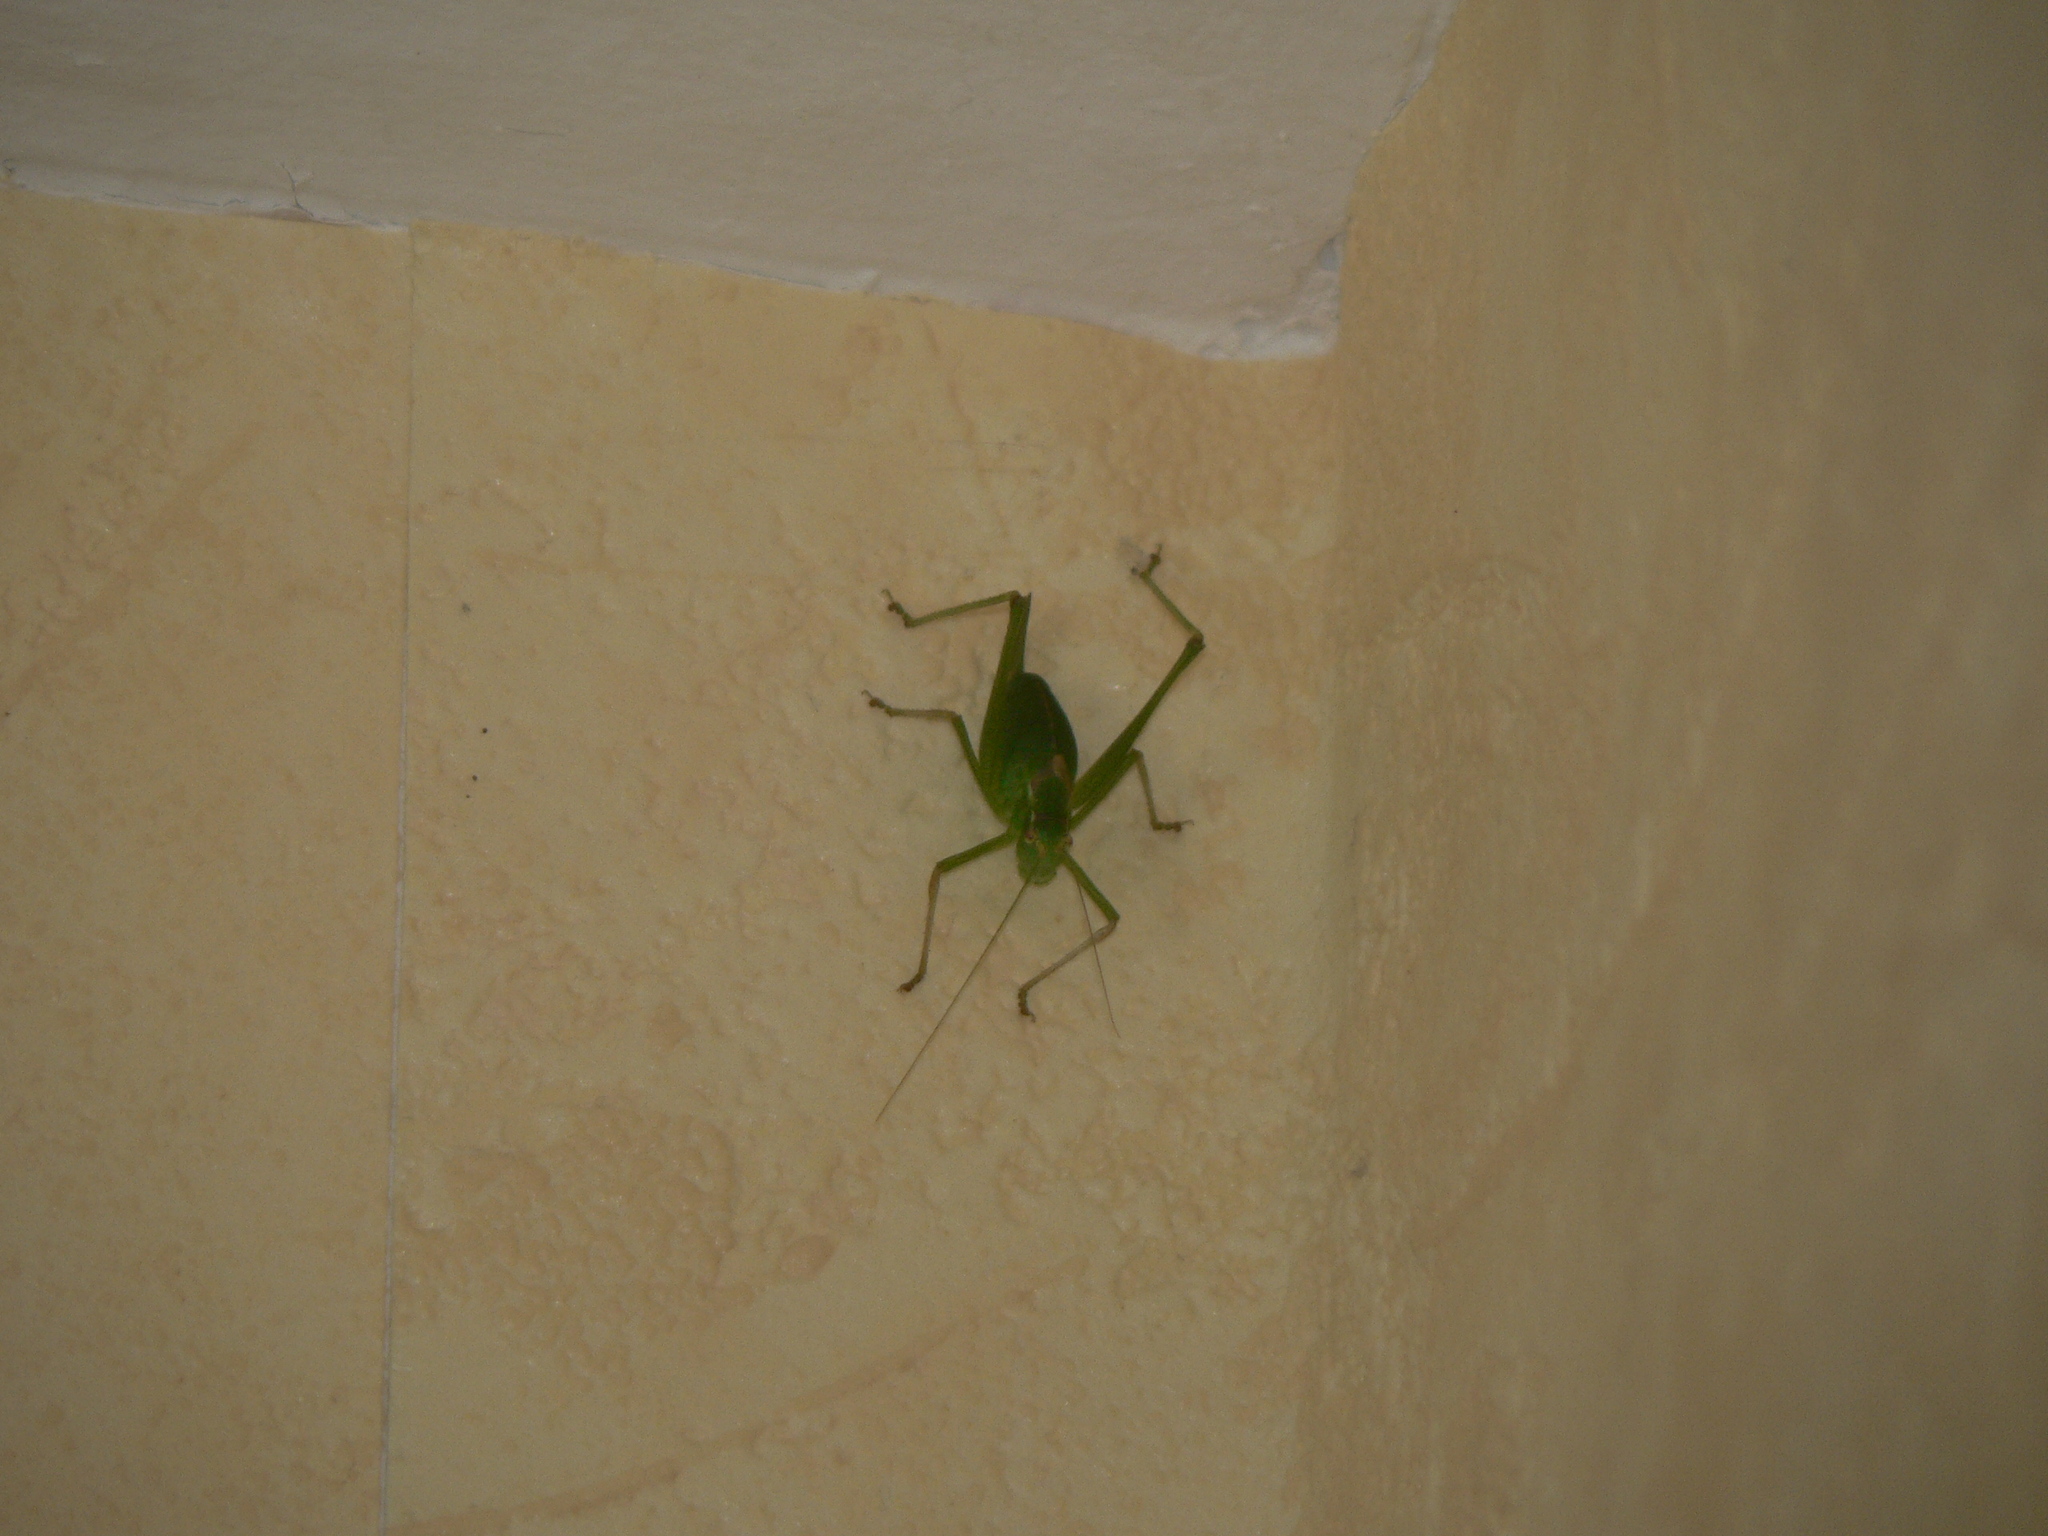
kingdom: Animalia
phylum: Arthropoda
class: Insecta
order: Orthoptera
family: Tettigoniidae
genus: Leptophyes
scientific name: Leptophyes punctatissima
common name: Speckled bush-cricket
